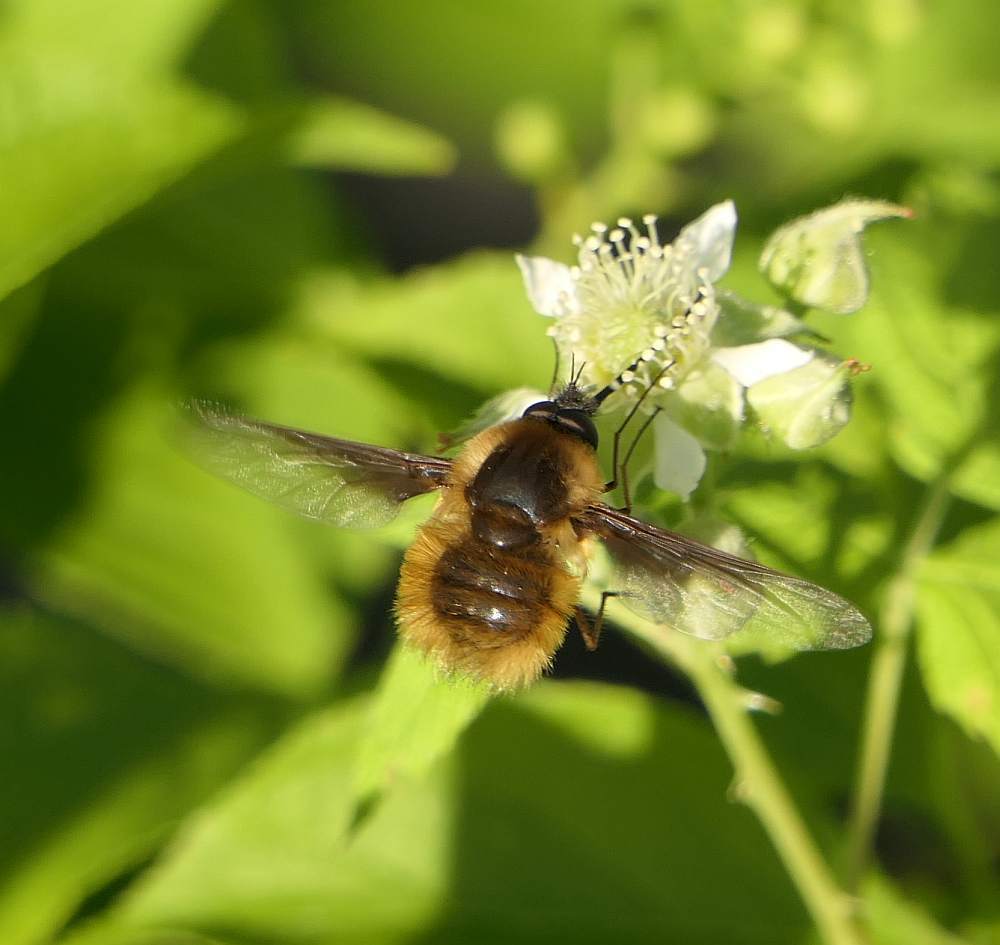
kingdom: Animalia
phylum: Arthropoda
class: Insecta
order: Diptera
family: Bombyliidae
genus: Bombylius
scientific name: Bombylius mexicanus
